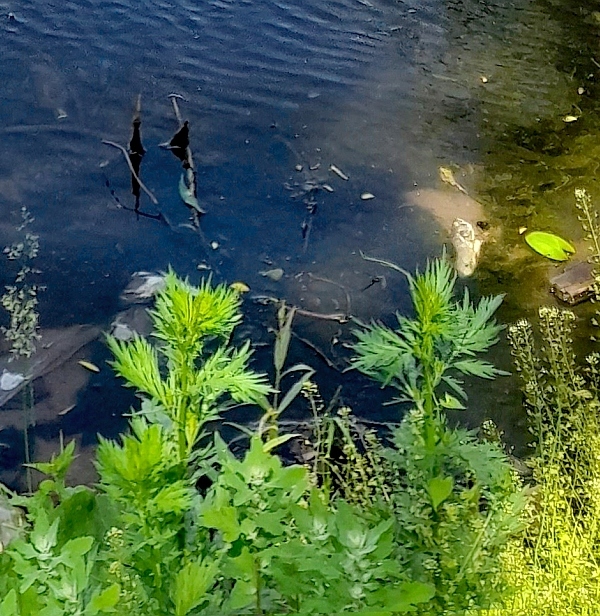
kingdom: Plantae
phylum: Tracheophyta
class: Magnoliopsida
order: Asterales
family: Asteraceae
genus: Artemisia
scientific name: Artemisia vulgaris
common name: Mugwort
